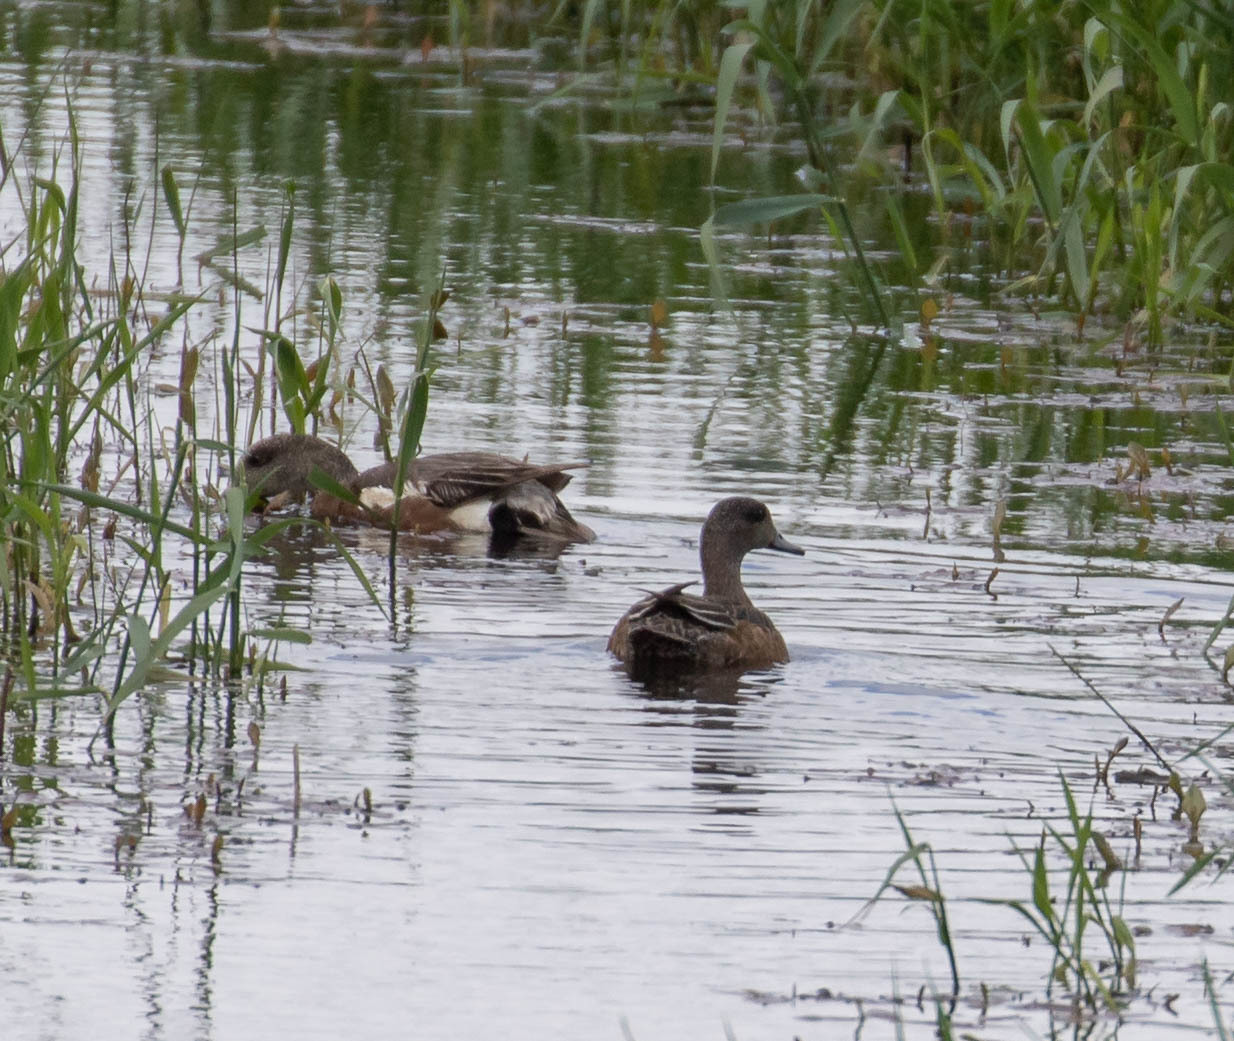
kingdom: Animalia
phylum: Chordata
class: Aves
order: Anseriformes
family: Anatidae
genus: Mareca
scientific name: Mareca americana
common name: American wigeon
